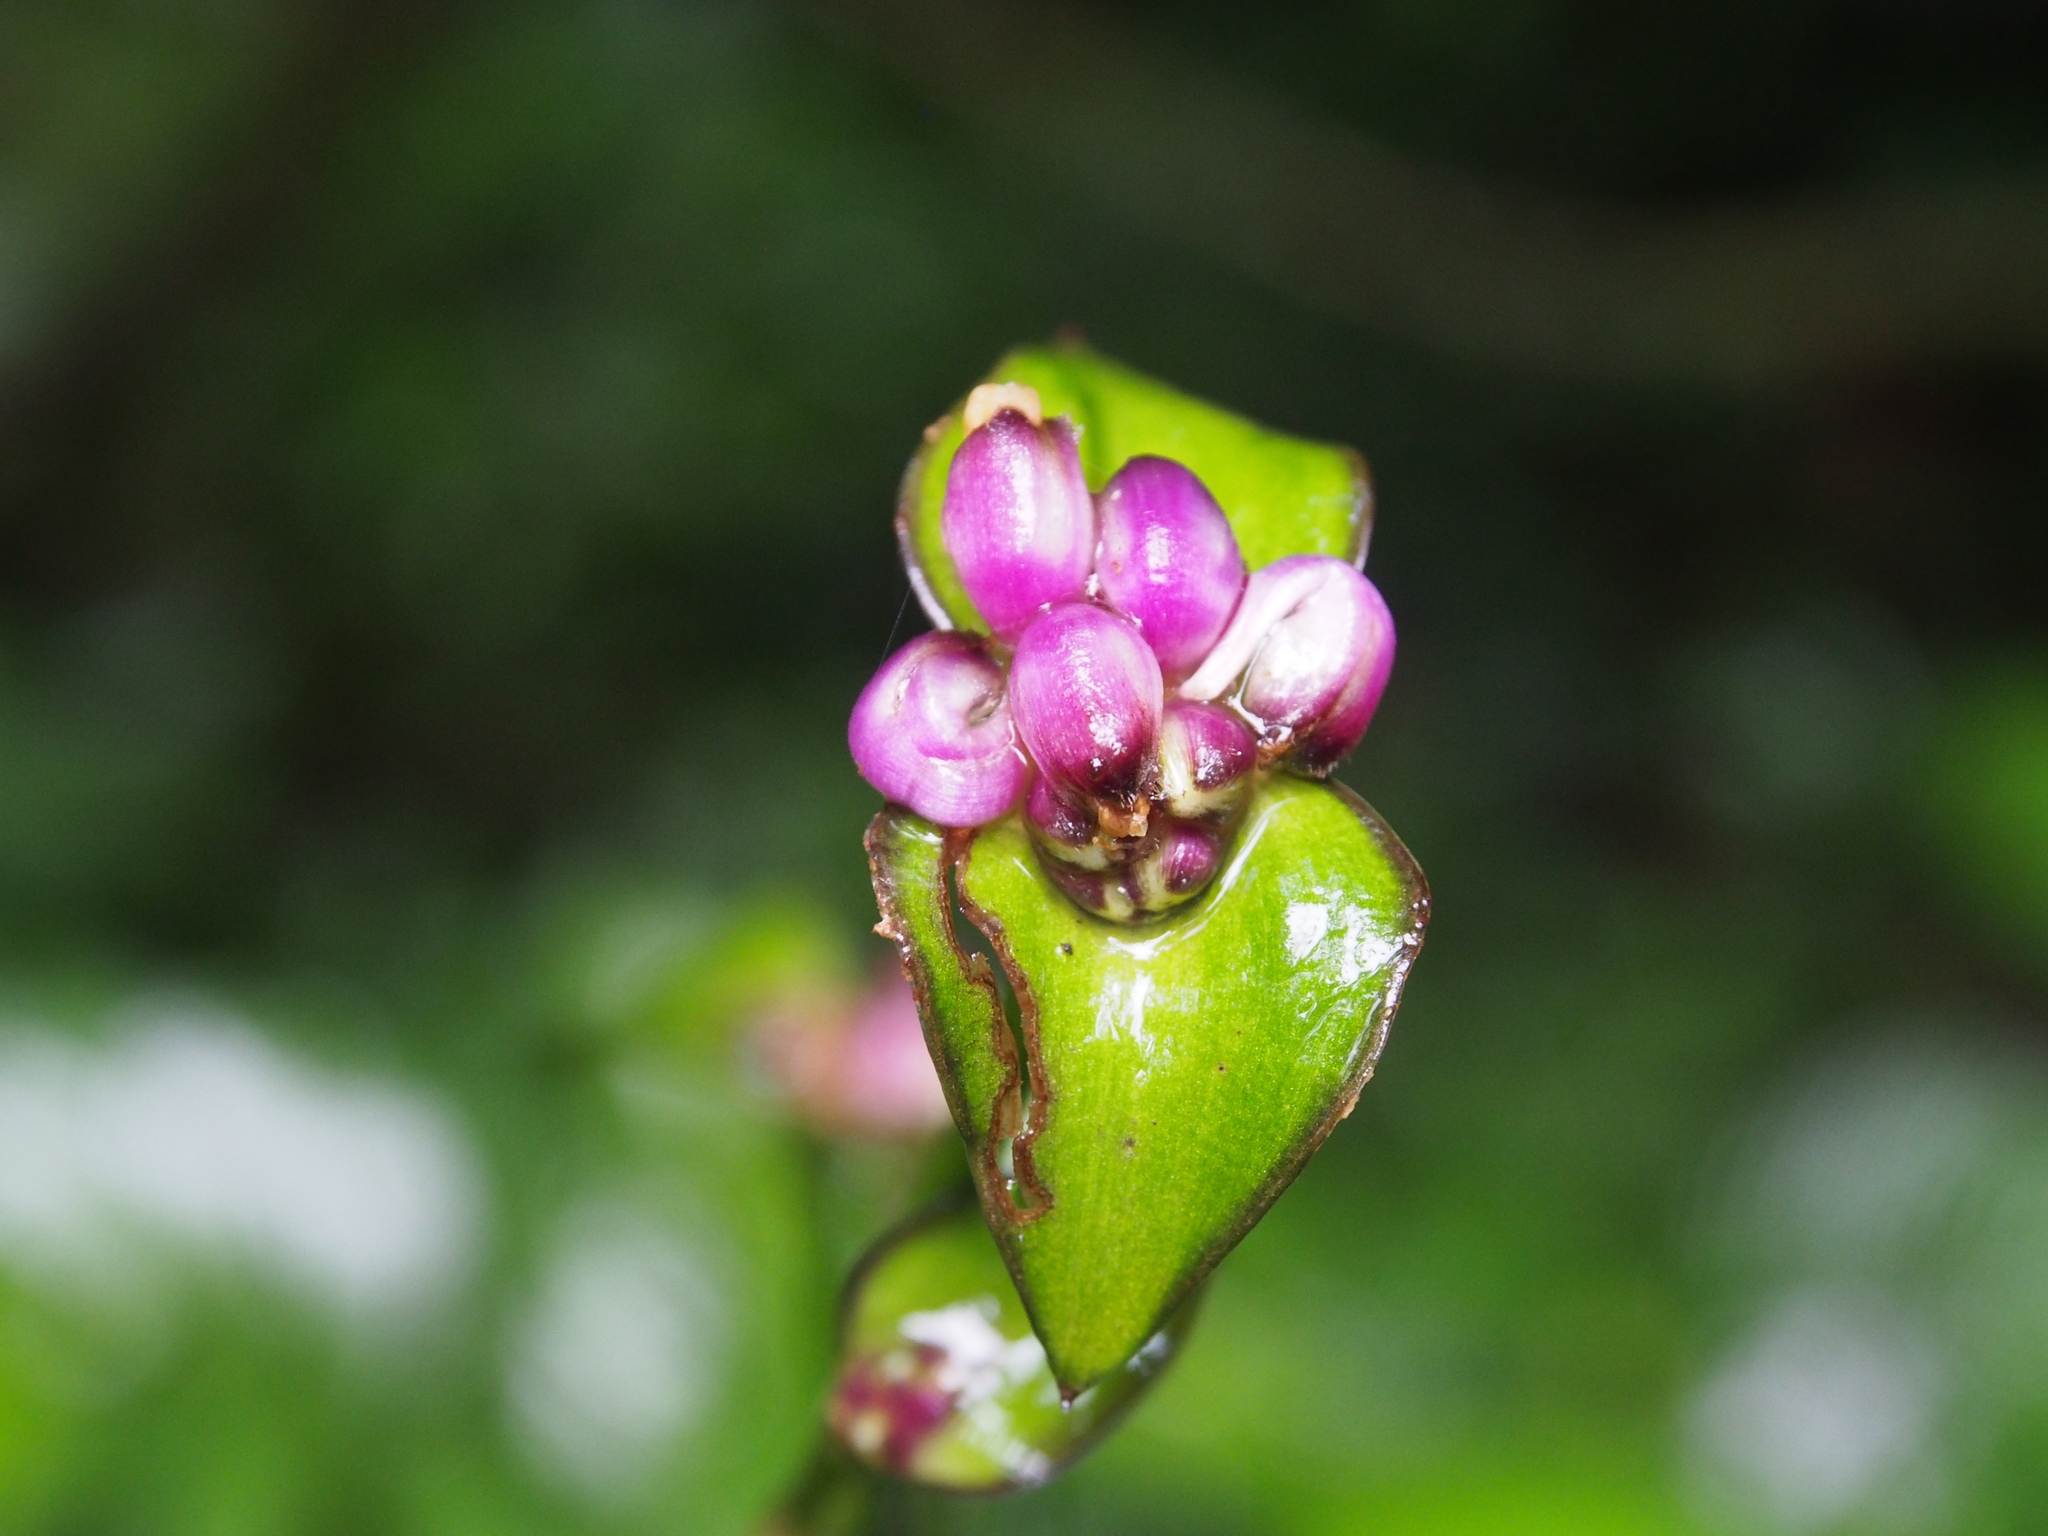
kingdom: Plantae
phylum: Tracheophyta
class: Liliopsida
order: Commelinales
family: Commelinaceae
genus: Tradescantia
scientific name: Tradescantia zanonia
